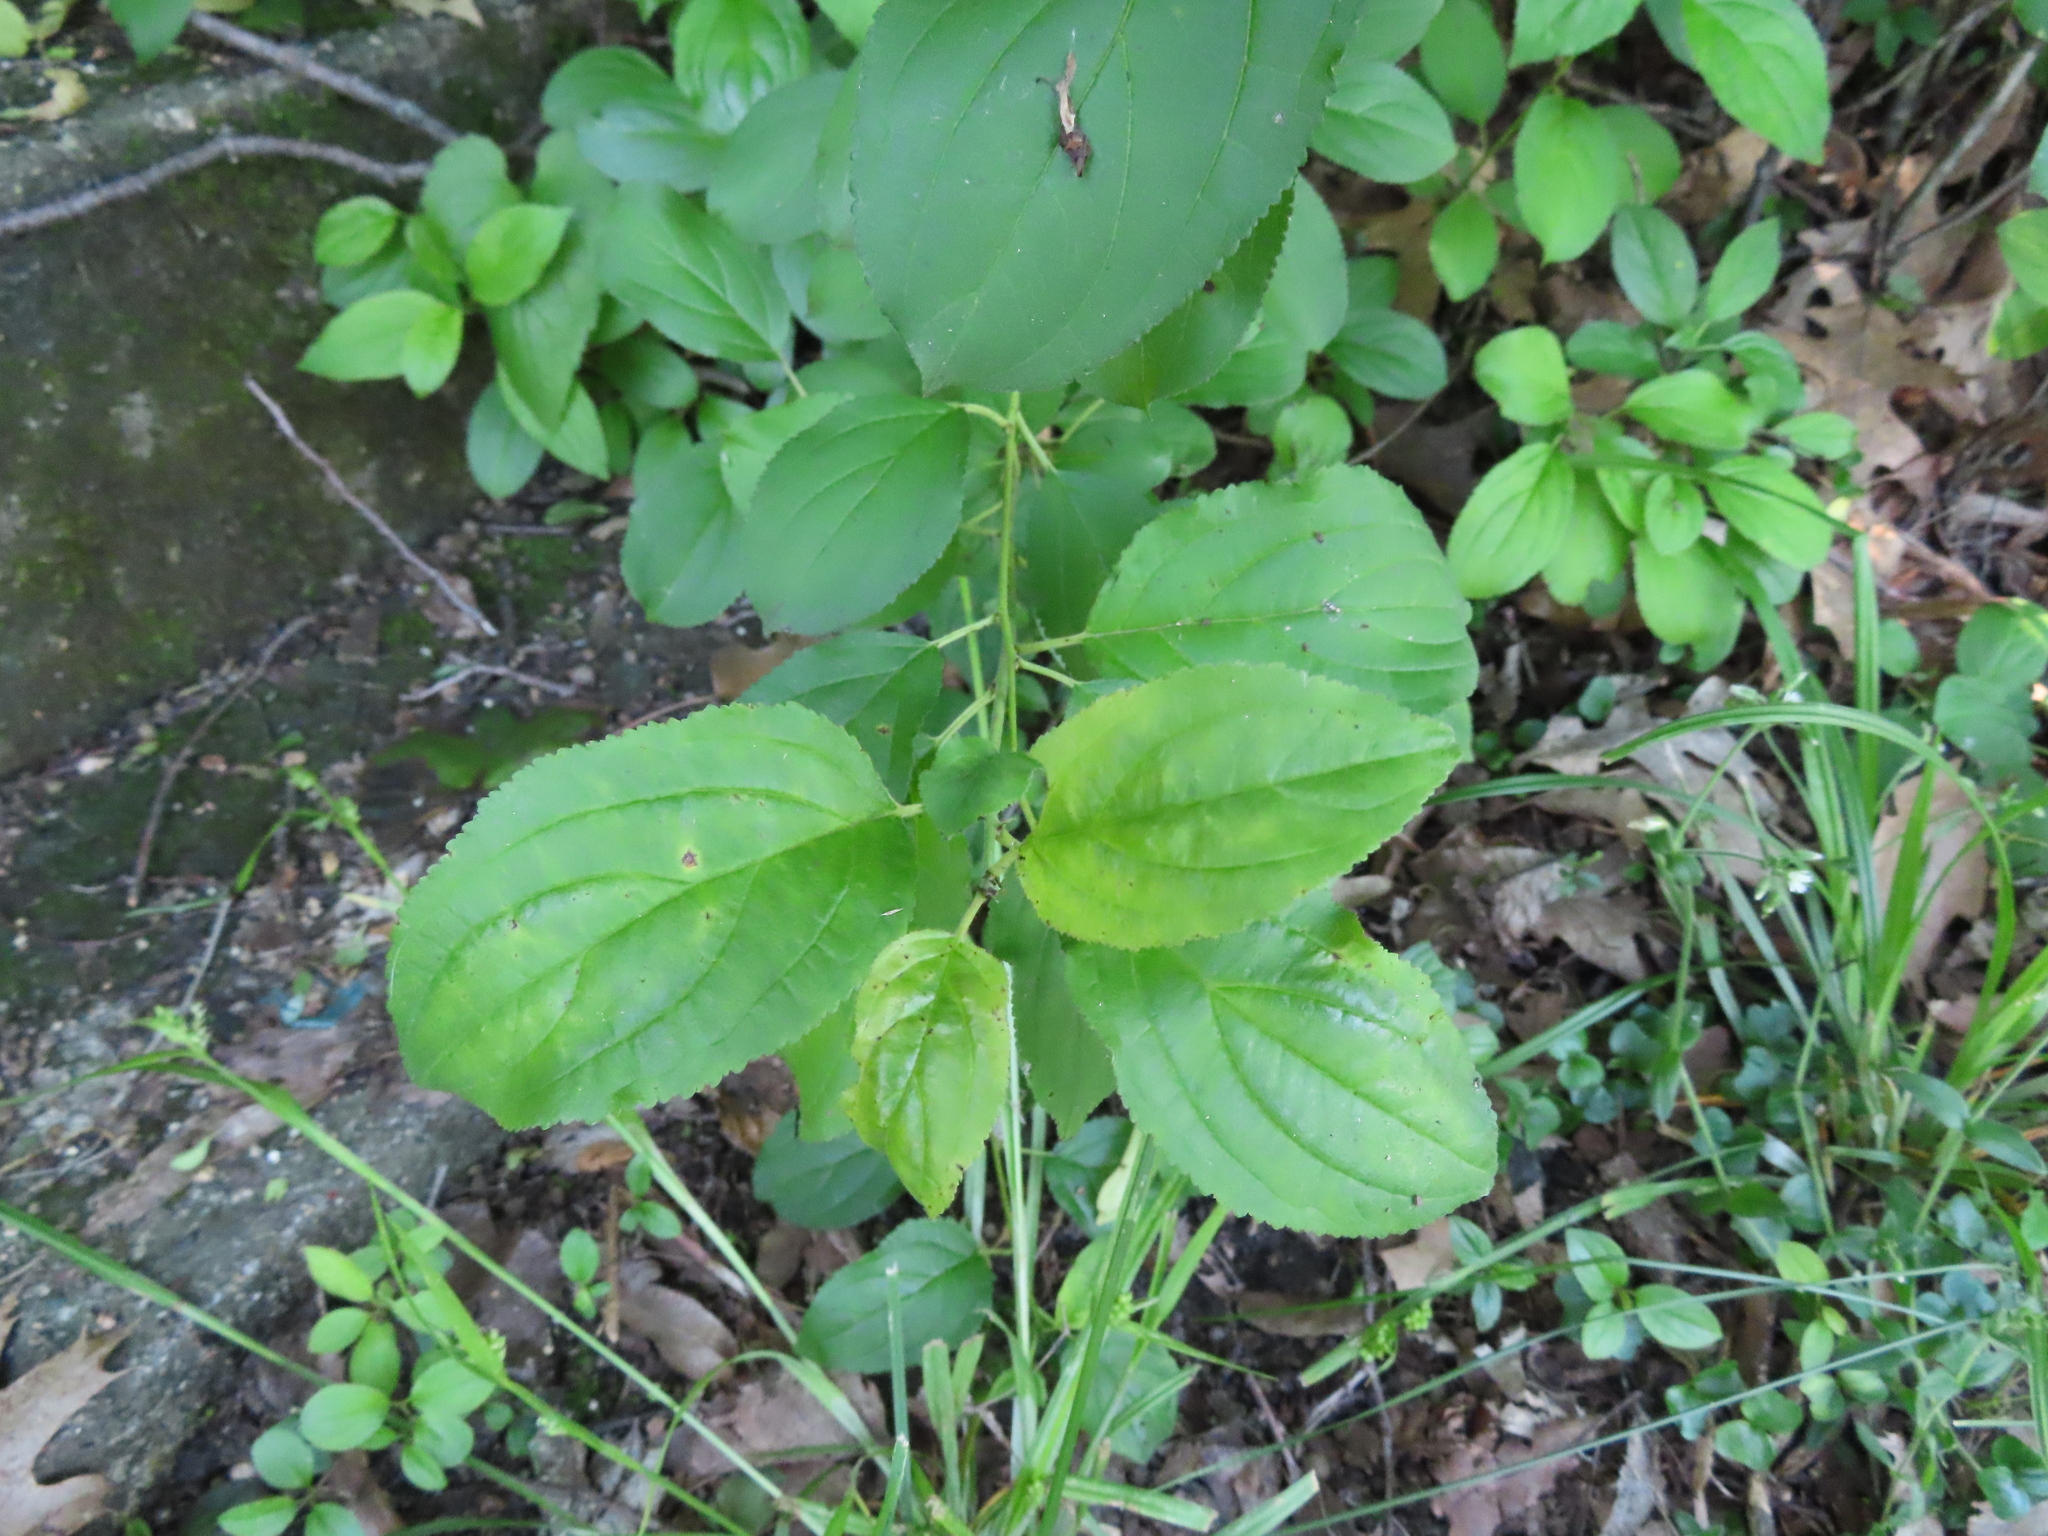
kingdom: Plantae
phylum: Tracheophyta
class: Magnoliopsida
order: Rosales
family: Rhamnaceae
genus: Rhamnus
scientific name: Rhamnus cathartica
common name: Common buckthorn
